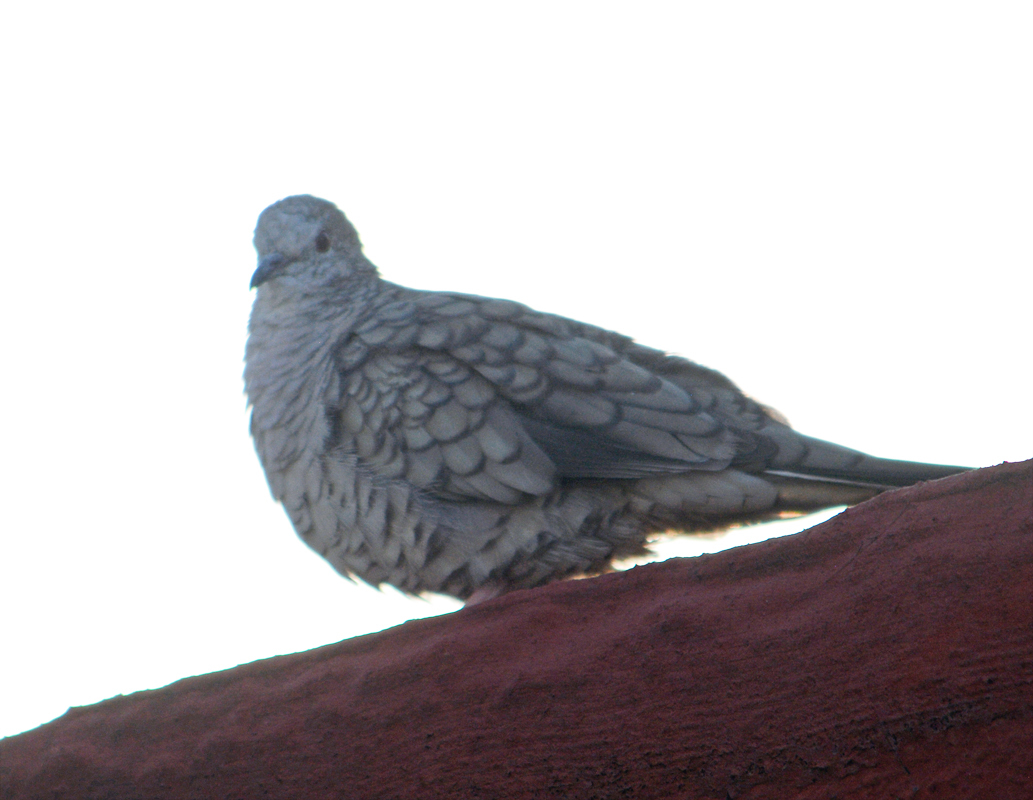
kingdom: Animalia
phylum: Chordata
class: Aves
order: Columbiformes
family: Columbidae
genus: Columbina
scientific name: Columbina inca
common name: Inca dove
